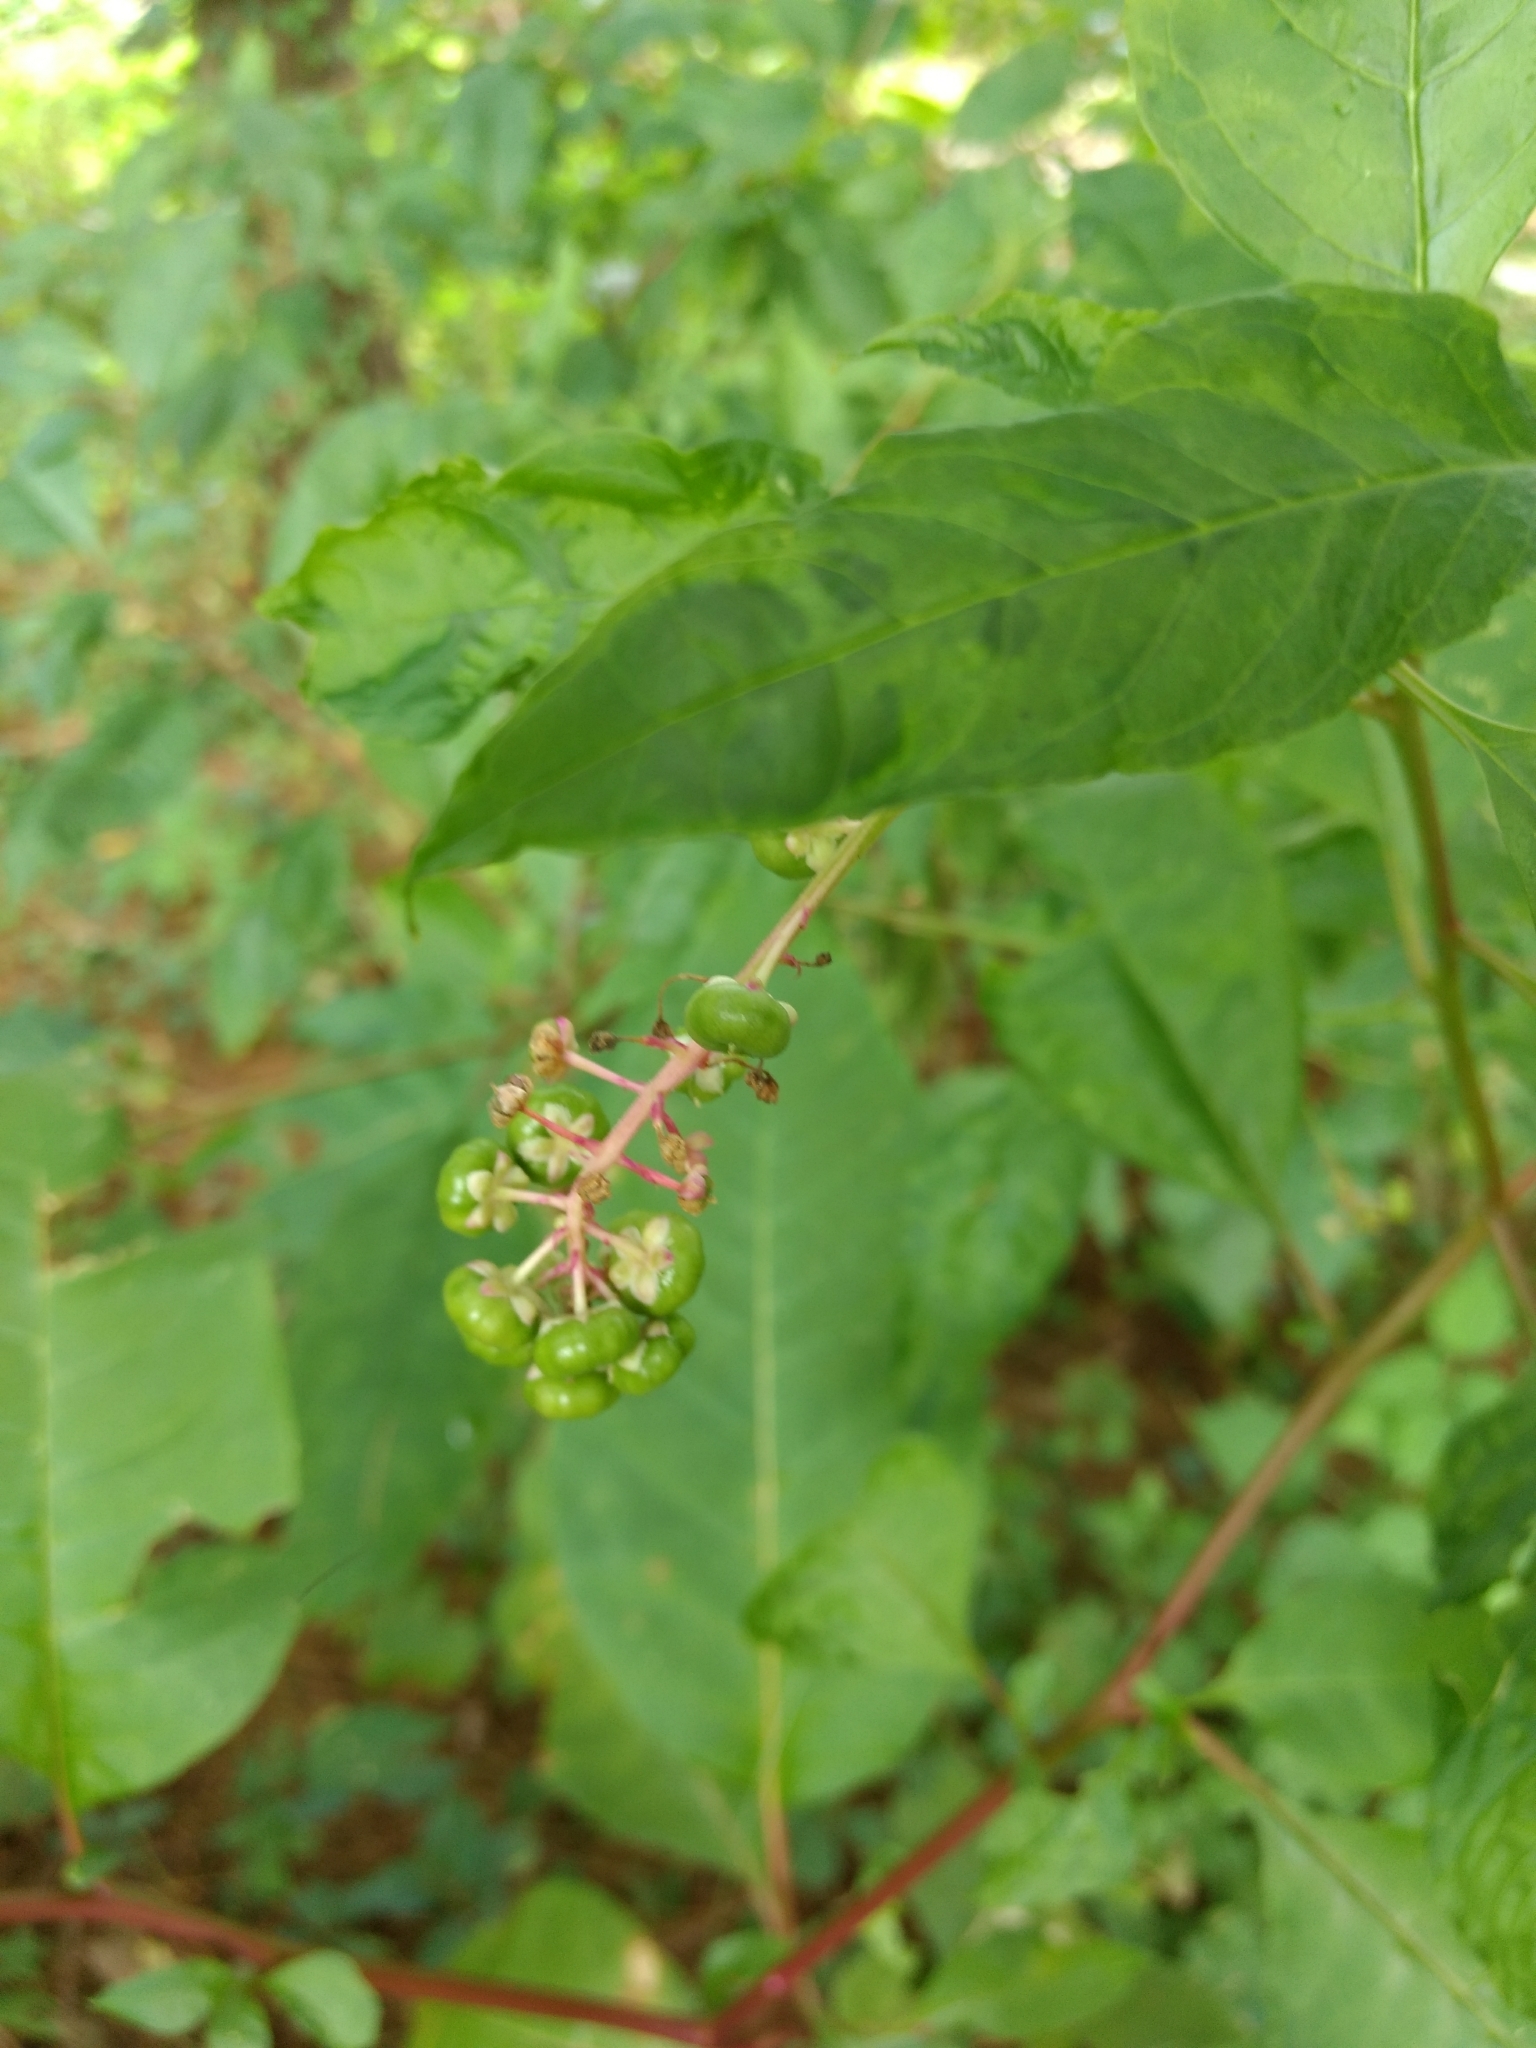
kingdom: Viruses
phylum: Pisuviricota
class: Stelpaviricetes
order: Patatavirales
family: Potyviridae
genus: Potyvirus
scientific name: Potyvirus Pokeweed mosaic virus
